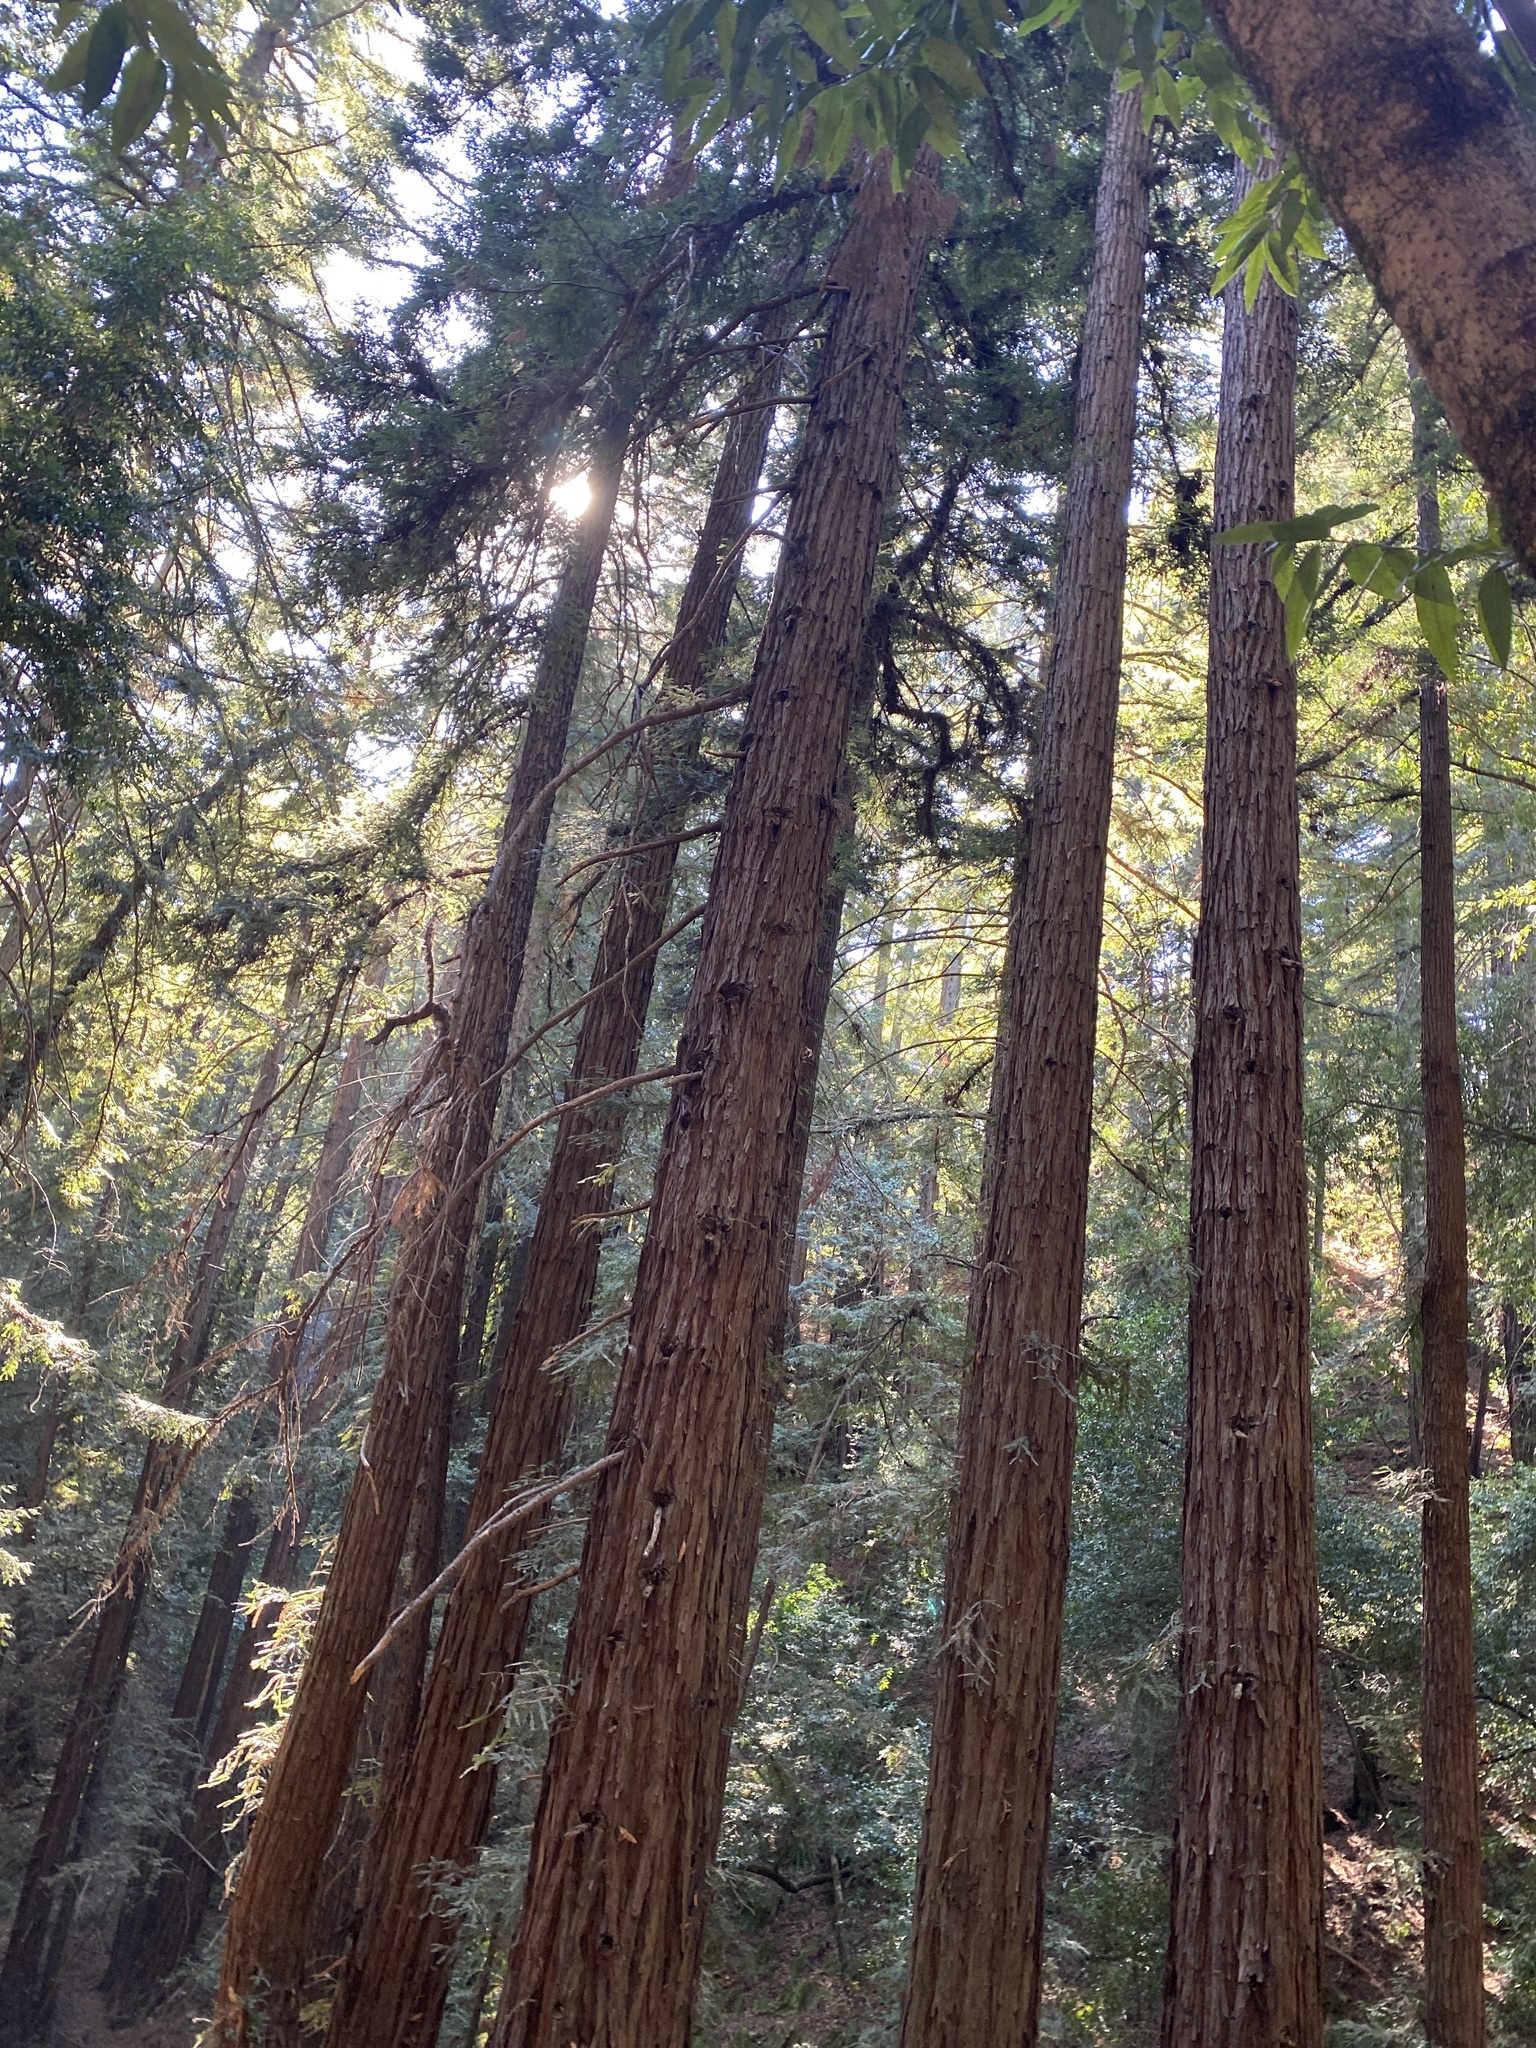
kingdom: Plantae
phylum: Tracheophyta
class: Pinopsida
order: Pinales
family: Cupressaceae
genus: Sequoia
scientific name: Sequoia sempervirens
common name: Coast redwood
